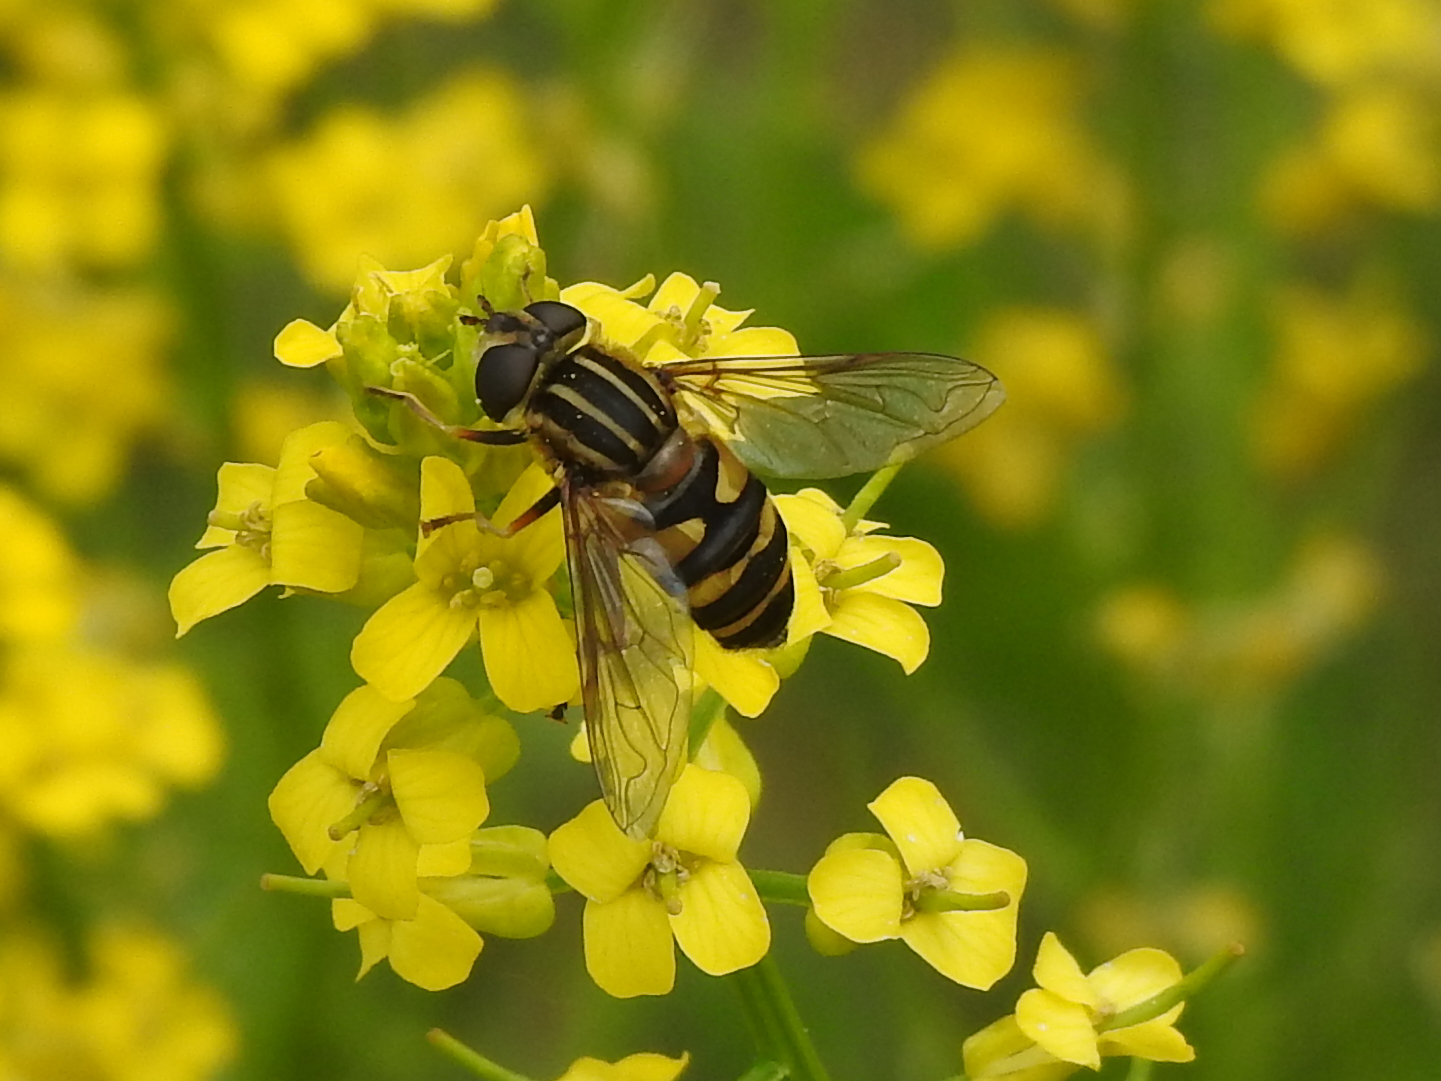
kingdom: Animalia
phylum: Arthropoda
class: Insecta
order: Diptera
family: Syrphidae
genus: Helophilus
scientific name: Helophilus fasciatus
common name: Narrow-headed marsh fly
